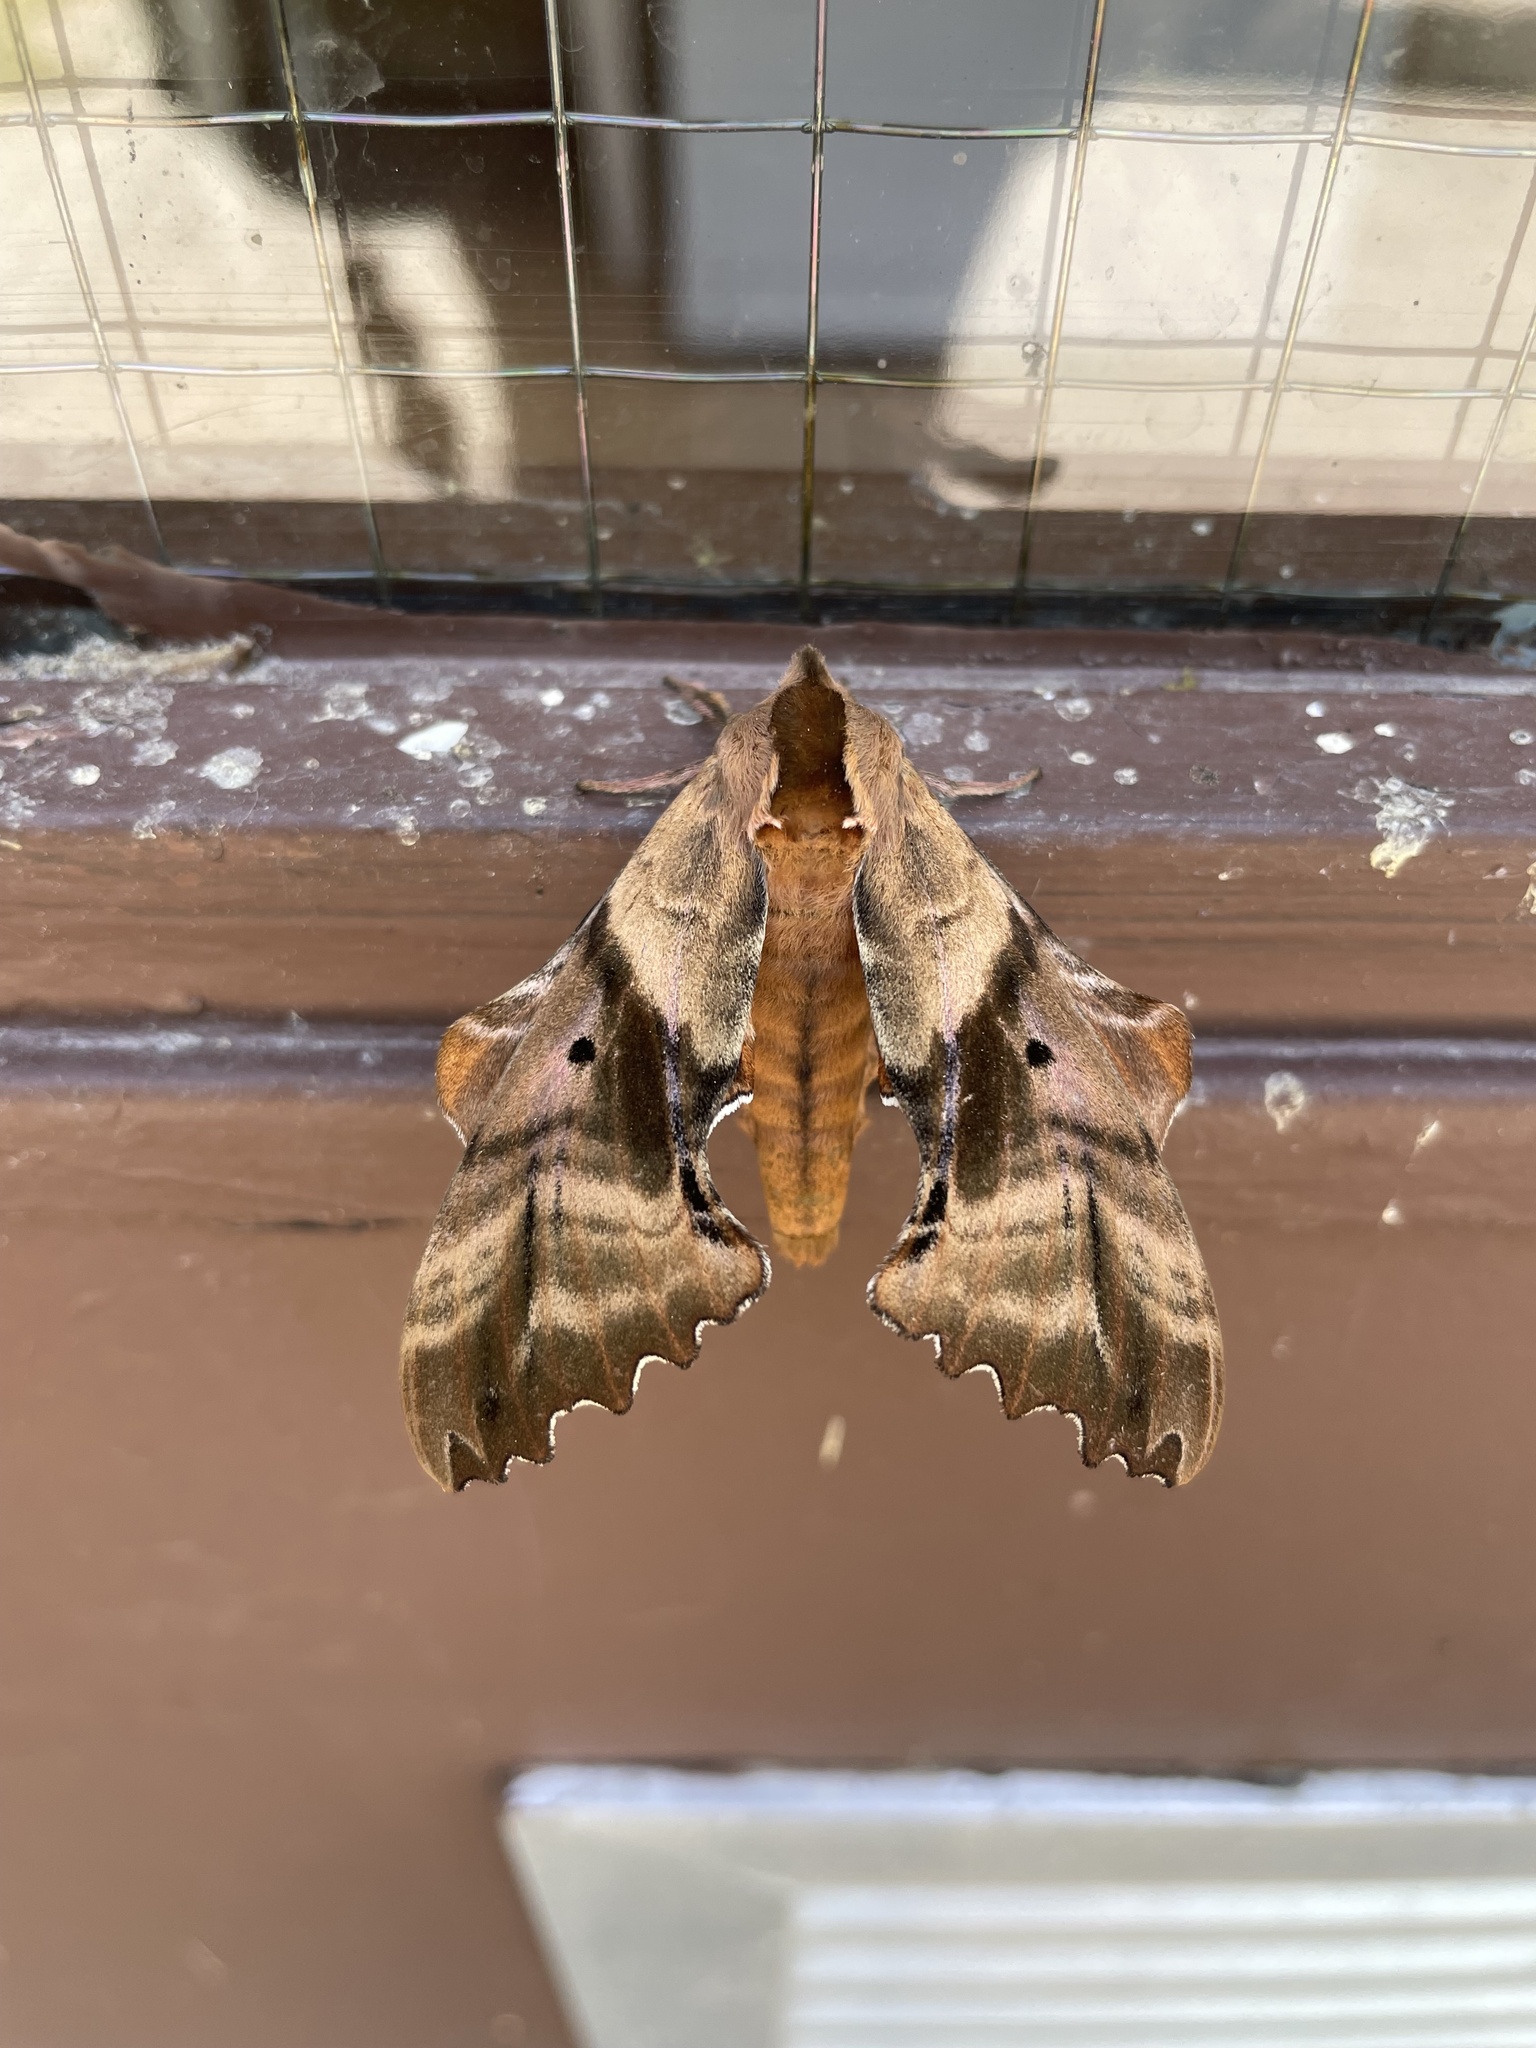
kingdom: Animalia
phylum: Arthropoda
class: Insecta
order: Lepidoptera
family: Sphingidae
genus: Paonias
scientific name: Paonias excaecata
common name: Blind-eyed sphinx
